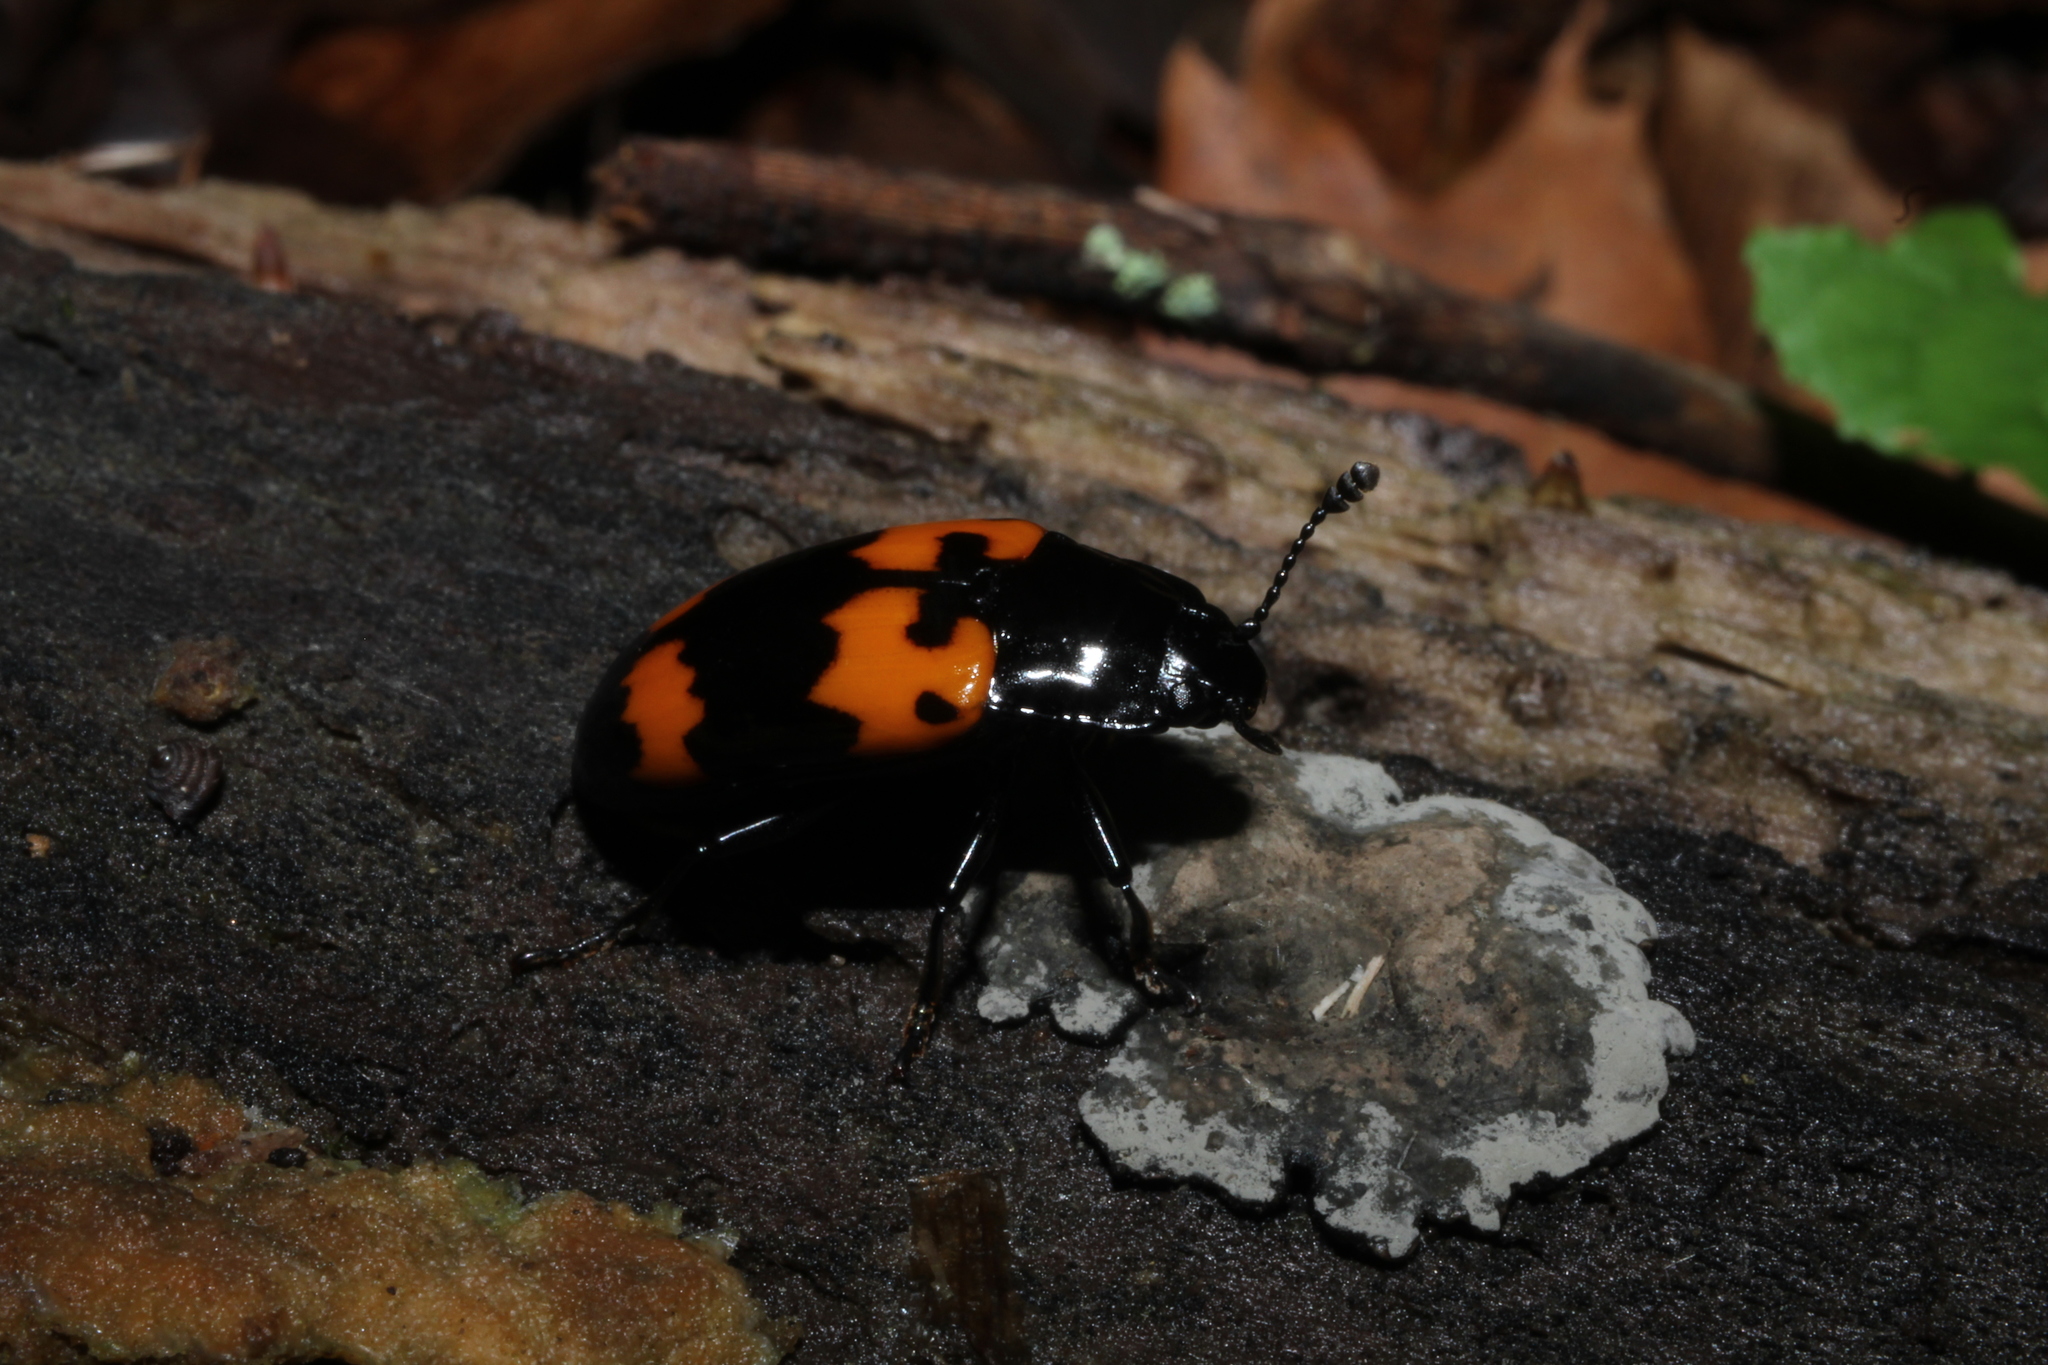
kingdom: Animalia
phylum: Arthropoda
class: Insecta
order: Coleoptera
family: Erotylidae
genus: Megalodacne
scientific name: Megalodacne heros
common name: Pleasing fungus beetle
